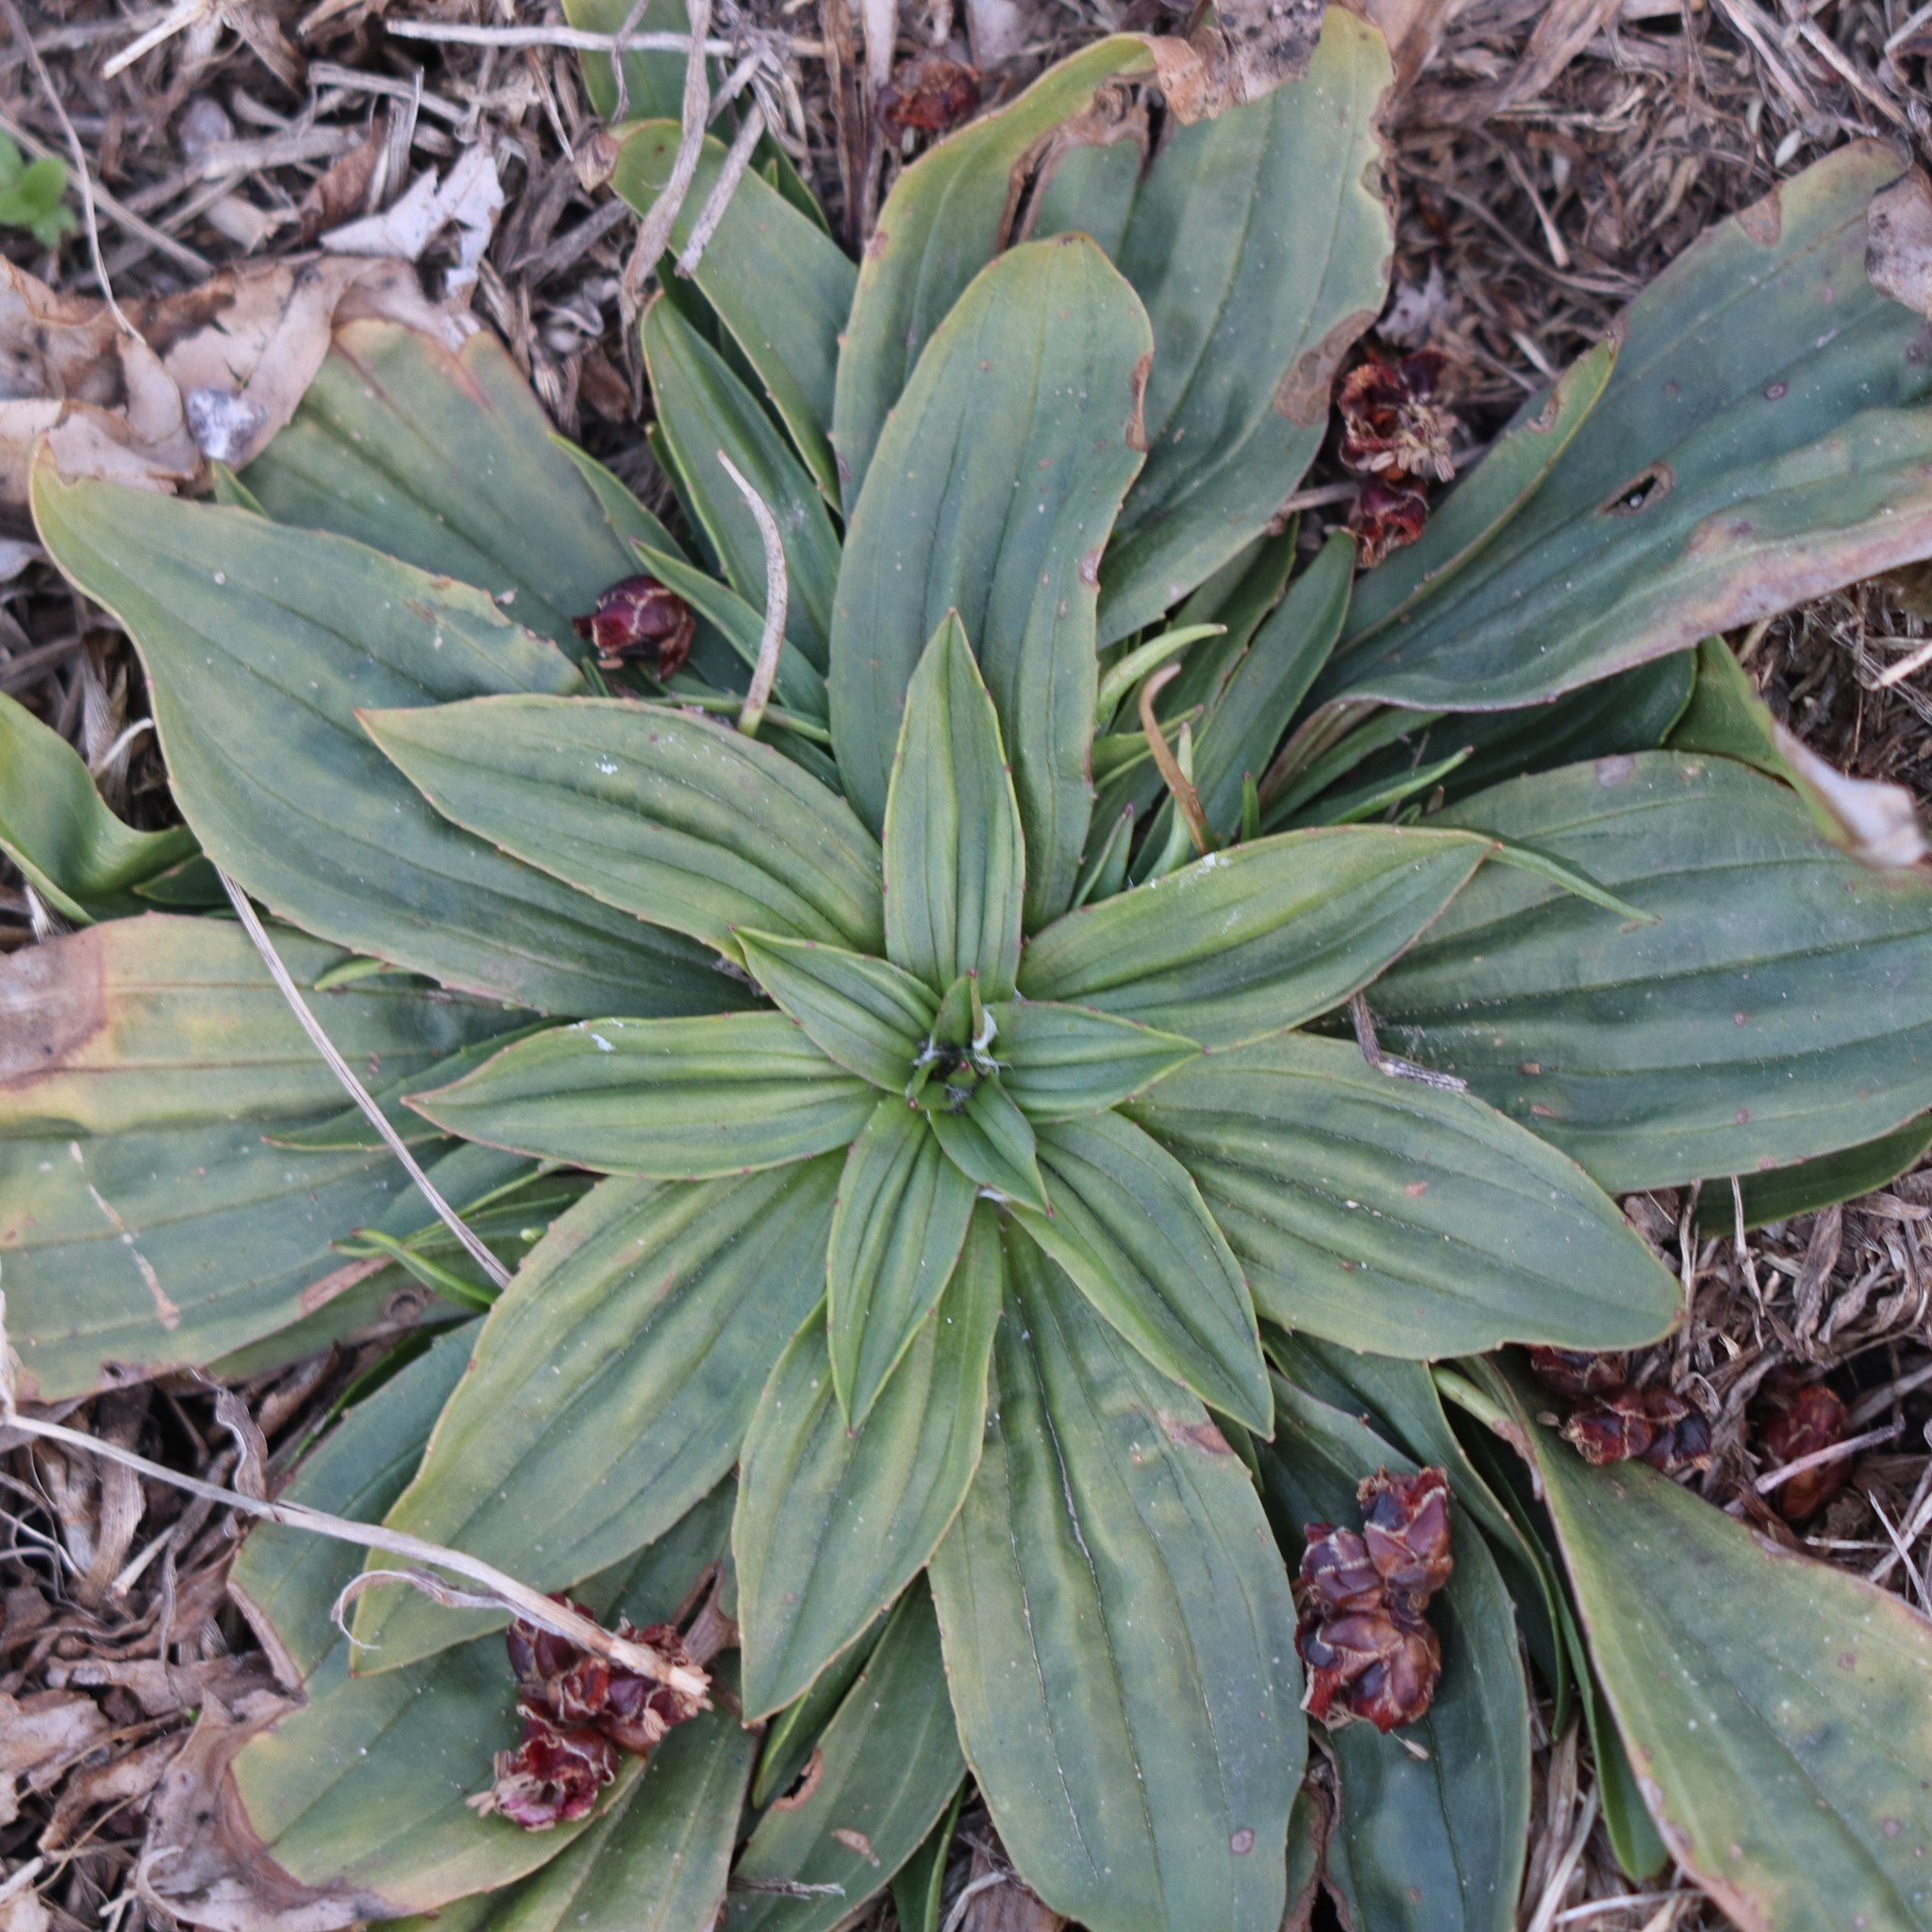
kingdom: Plantae
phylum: Tracheophyta
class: Magnoliopsida
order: Lamiales
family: Plantaginaceae
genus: Plantago
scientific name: Plantago lanceolata
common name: Ribwort plantain
